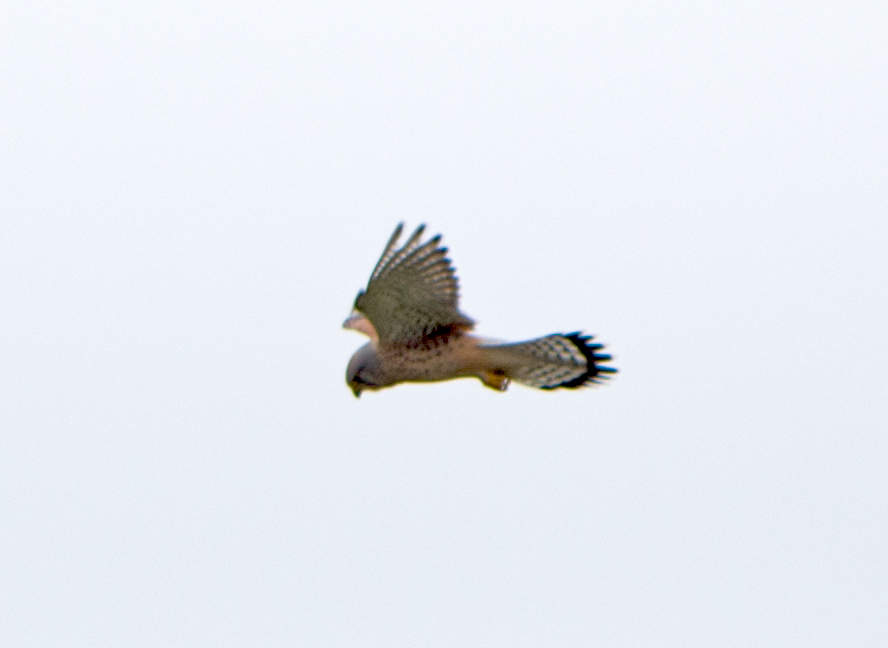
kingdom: Animalia
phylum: Chordata
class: Aves
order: Falconiformes
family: Falconidae
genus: Falco
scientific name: Falco tinnunculus
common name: Common kestrel
